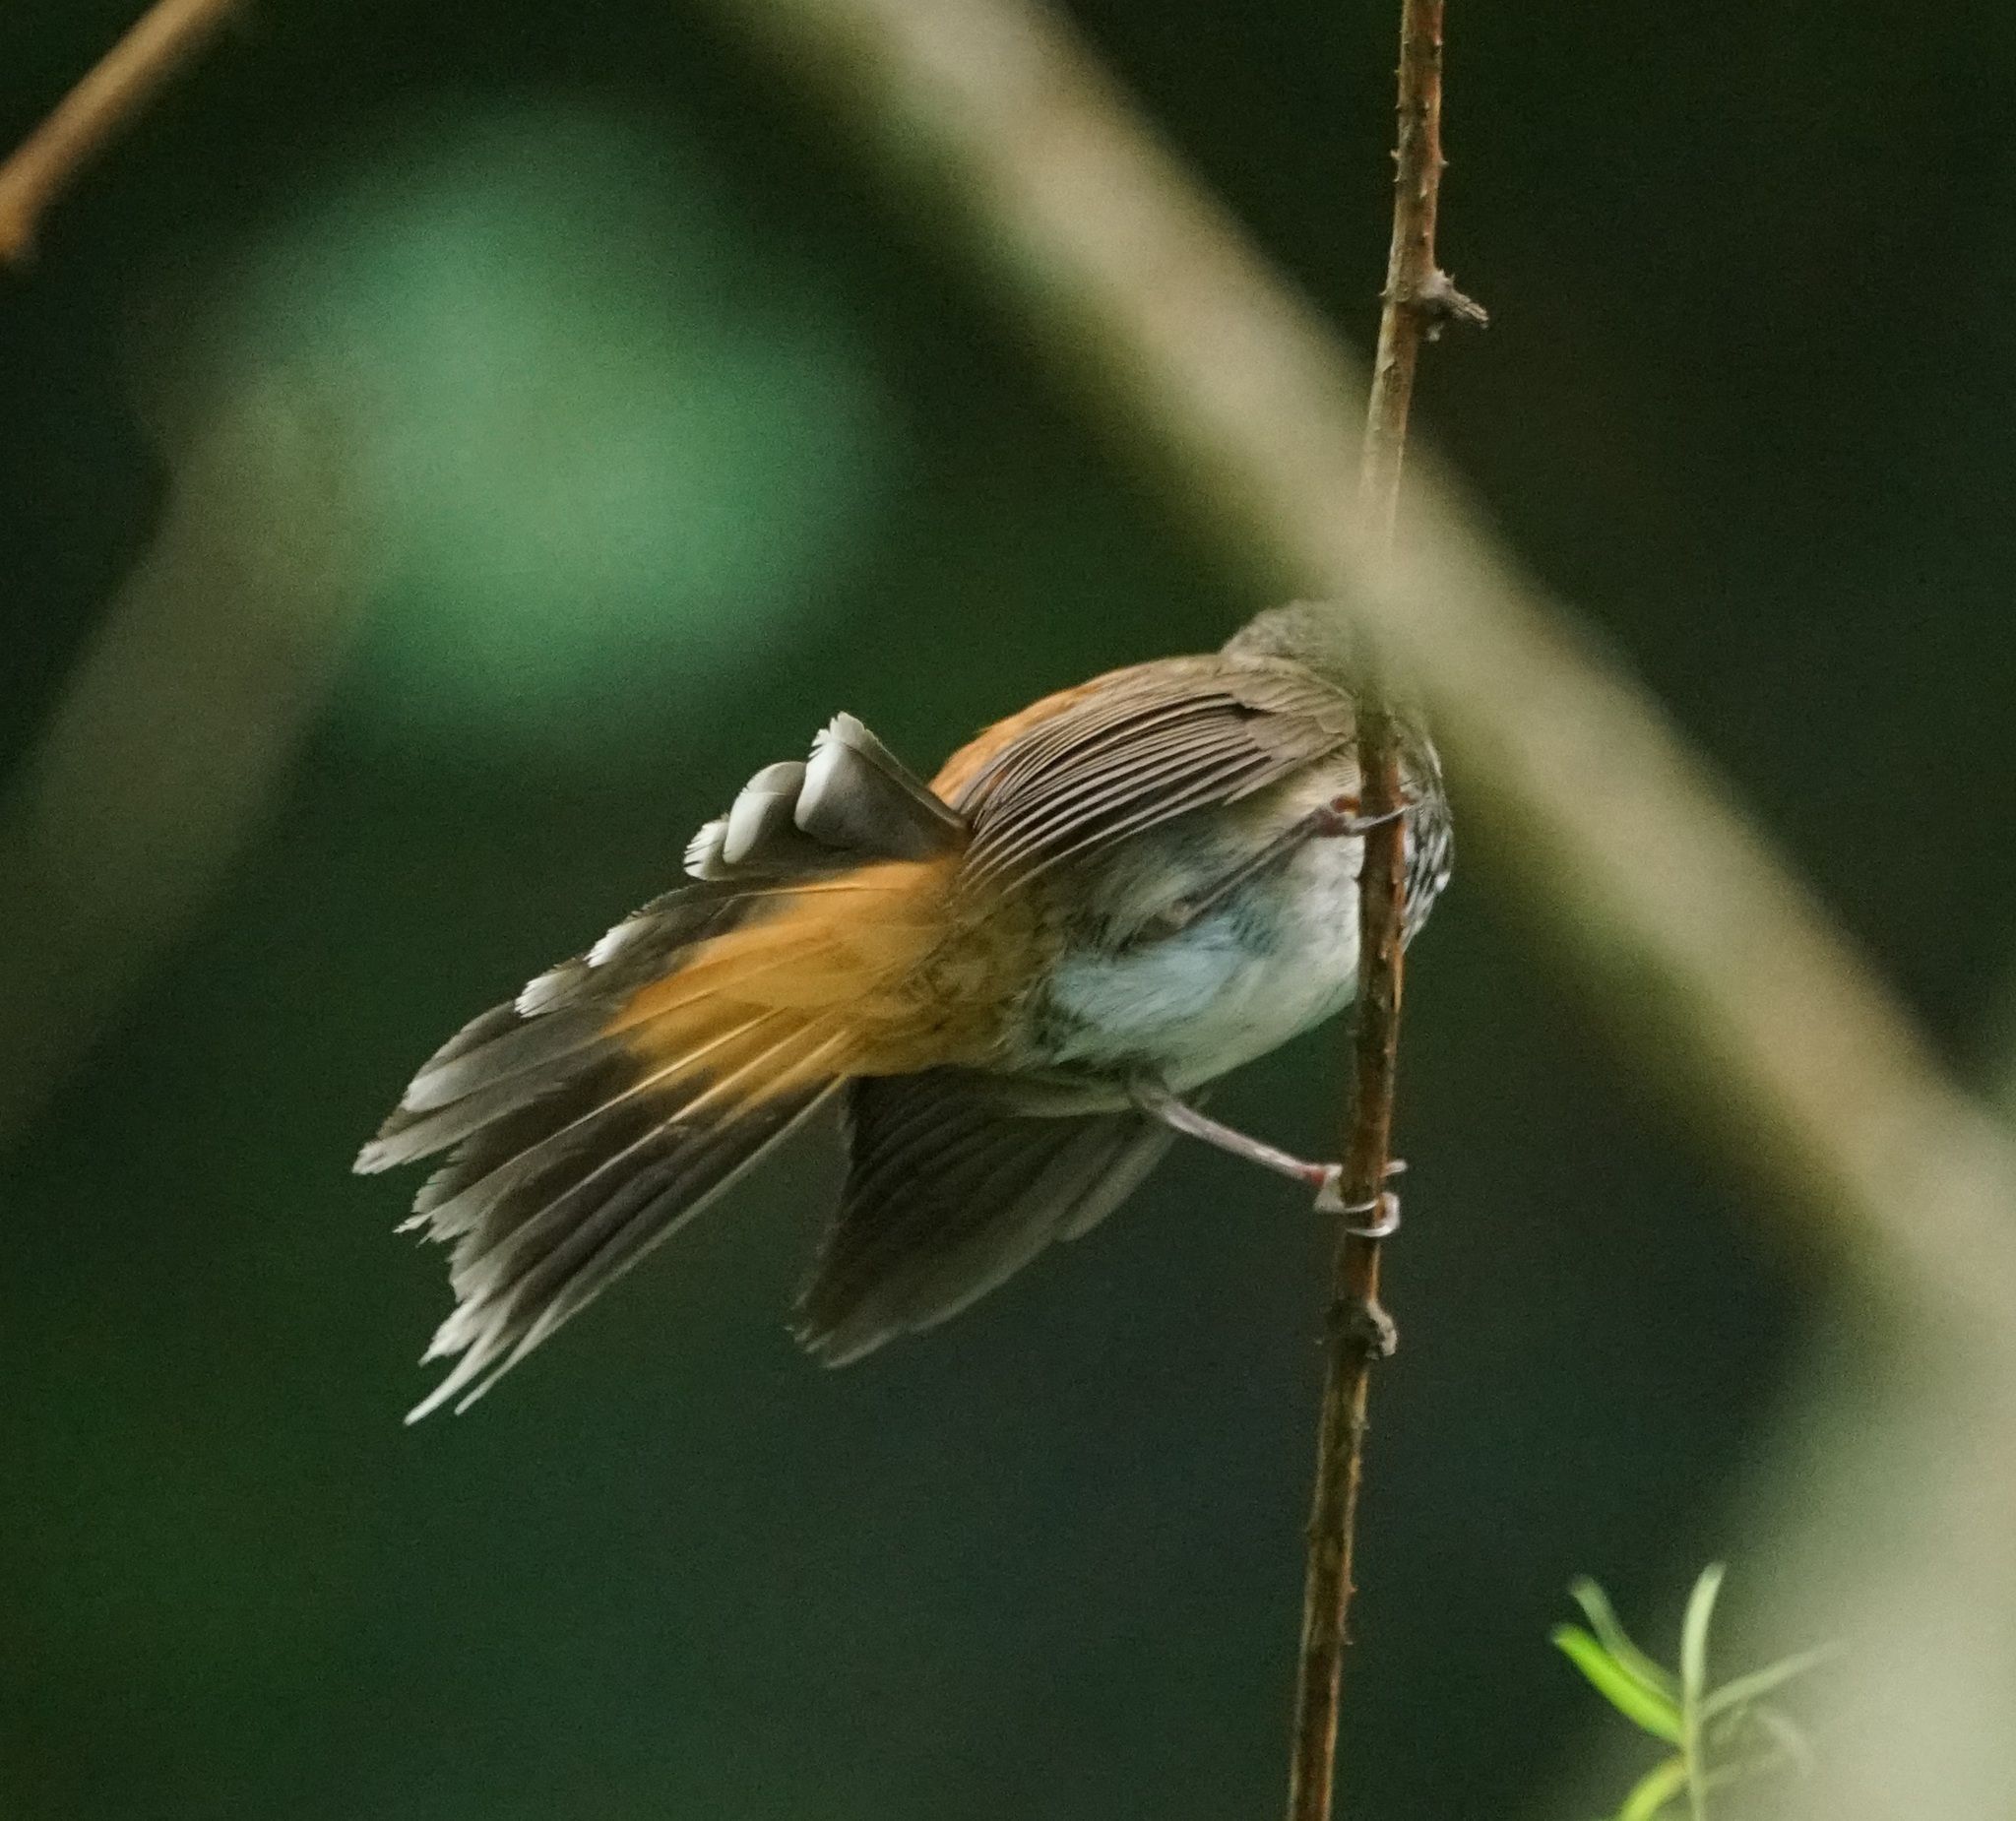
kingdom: Animalia
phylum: Chordata
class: Aves
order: Passeriformes
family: Rhipiduridae
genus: Rhipidura
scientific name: Rhipidura rufifrons
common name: Rufous fantail
